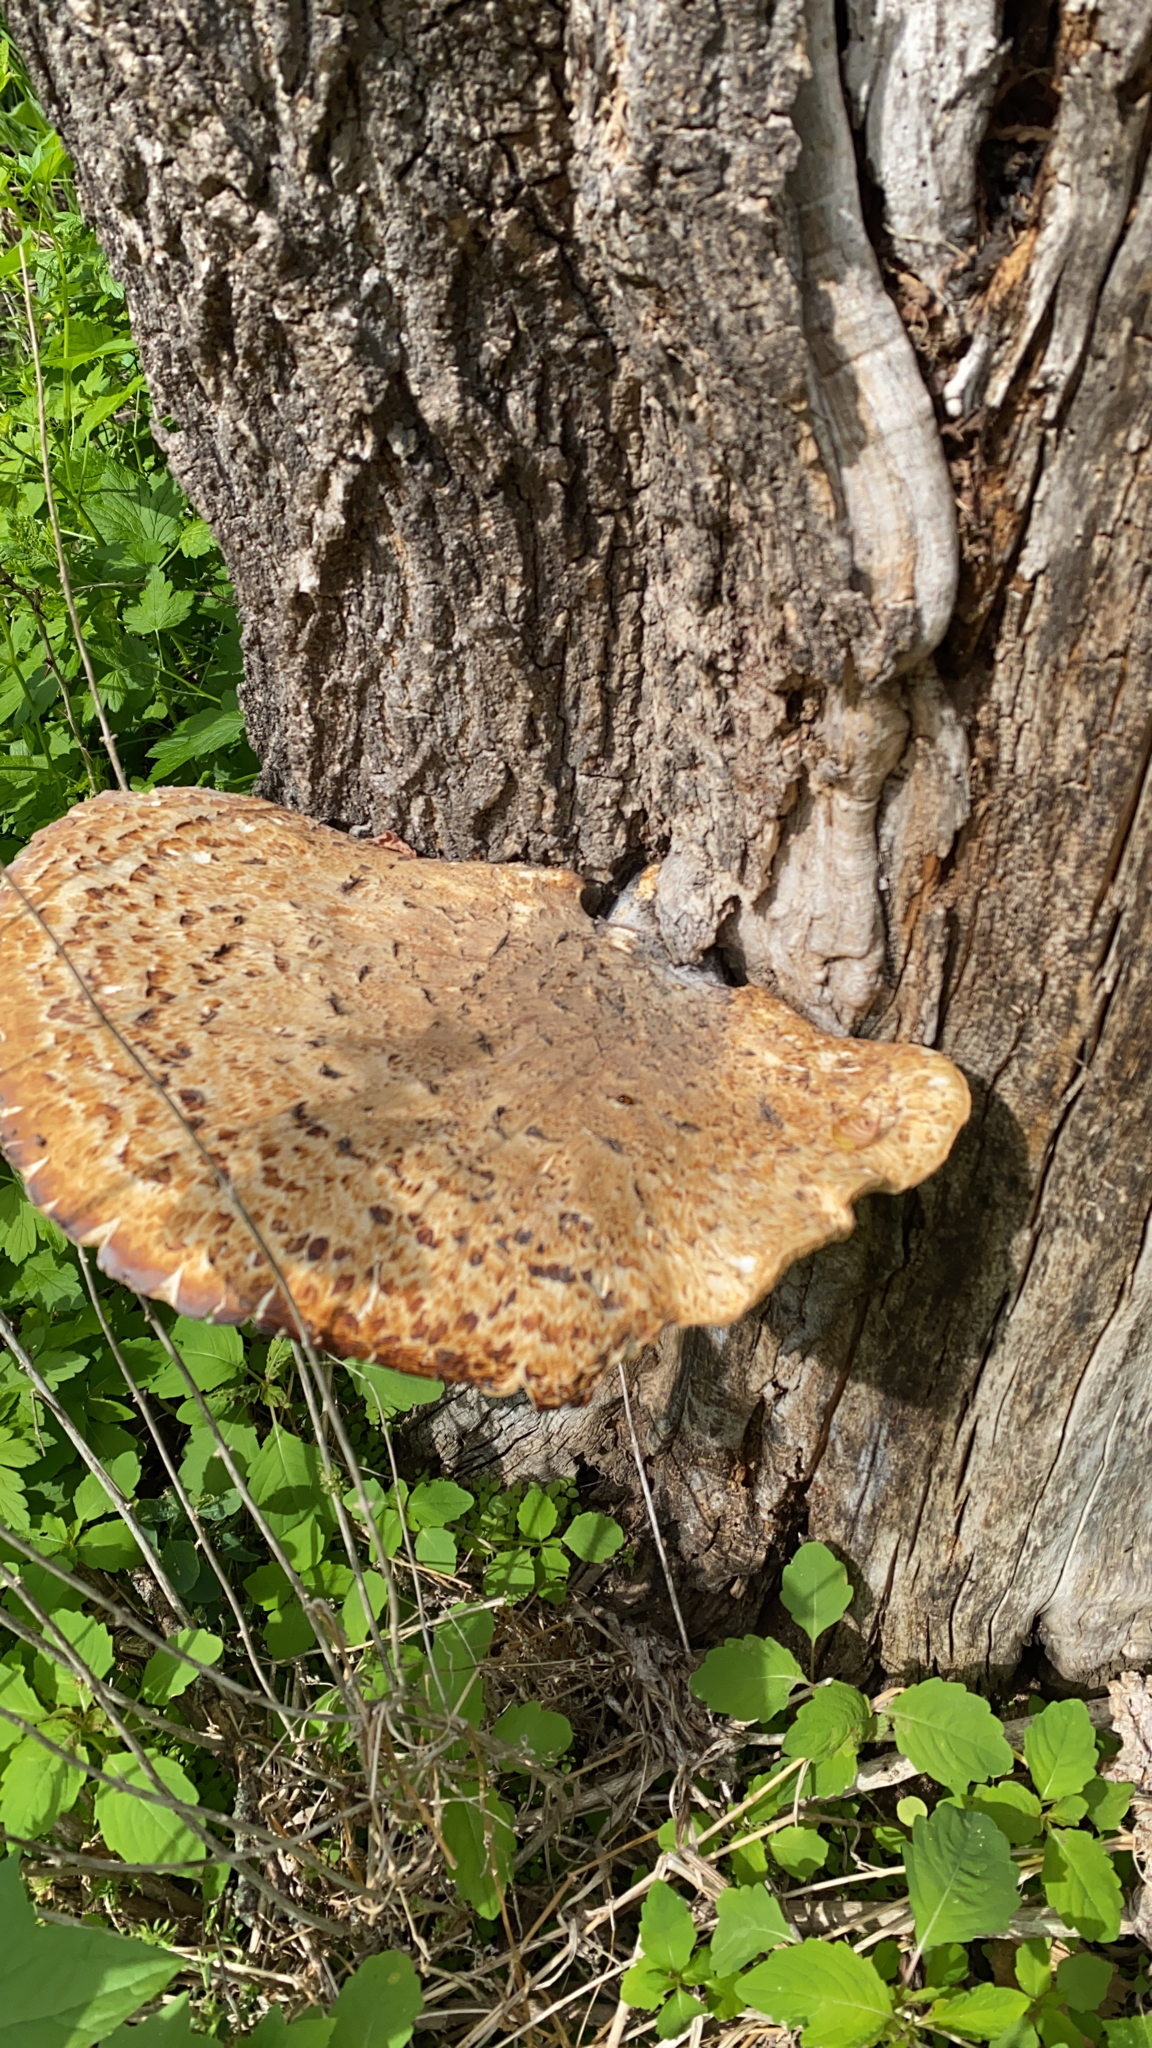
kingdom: Fungi
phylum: Basidiomycota
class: Agaricomycetes
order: Polyporales
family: Polyporaceae
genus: Cerioporus
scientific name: Cerioporus squamosus
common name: Dryad's saddle
